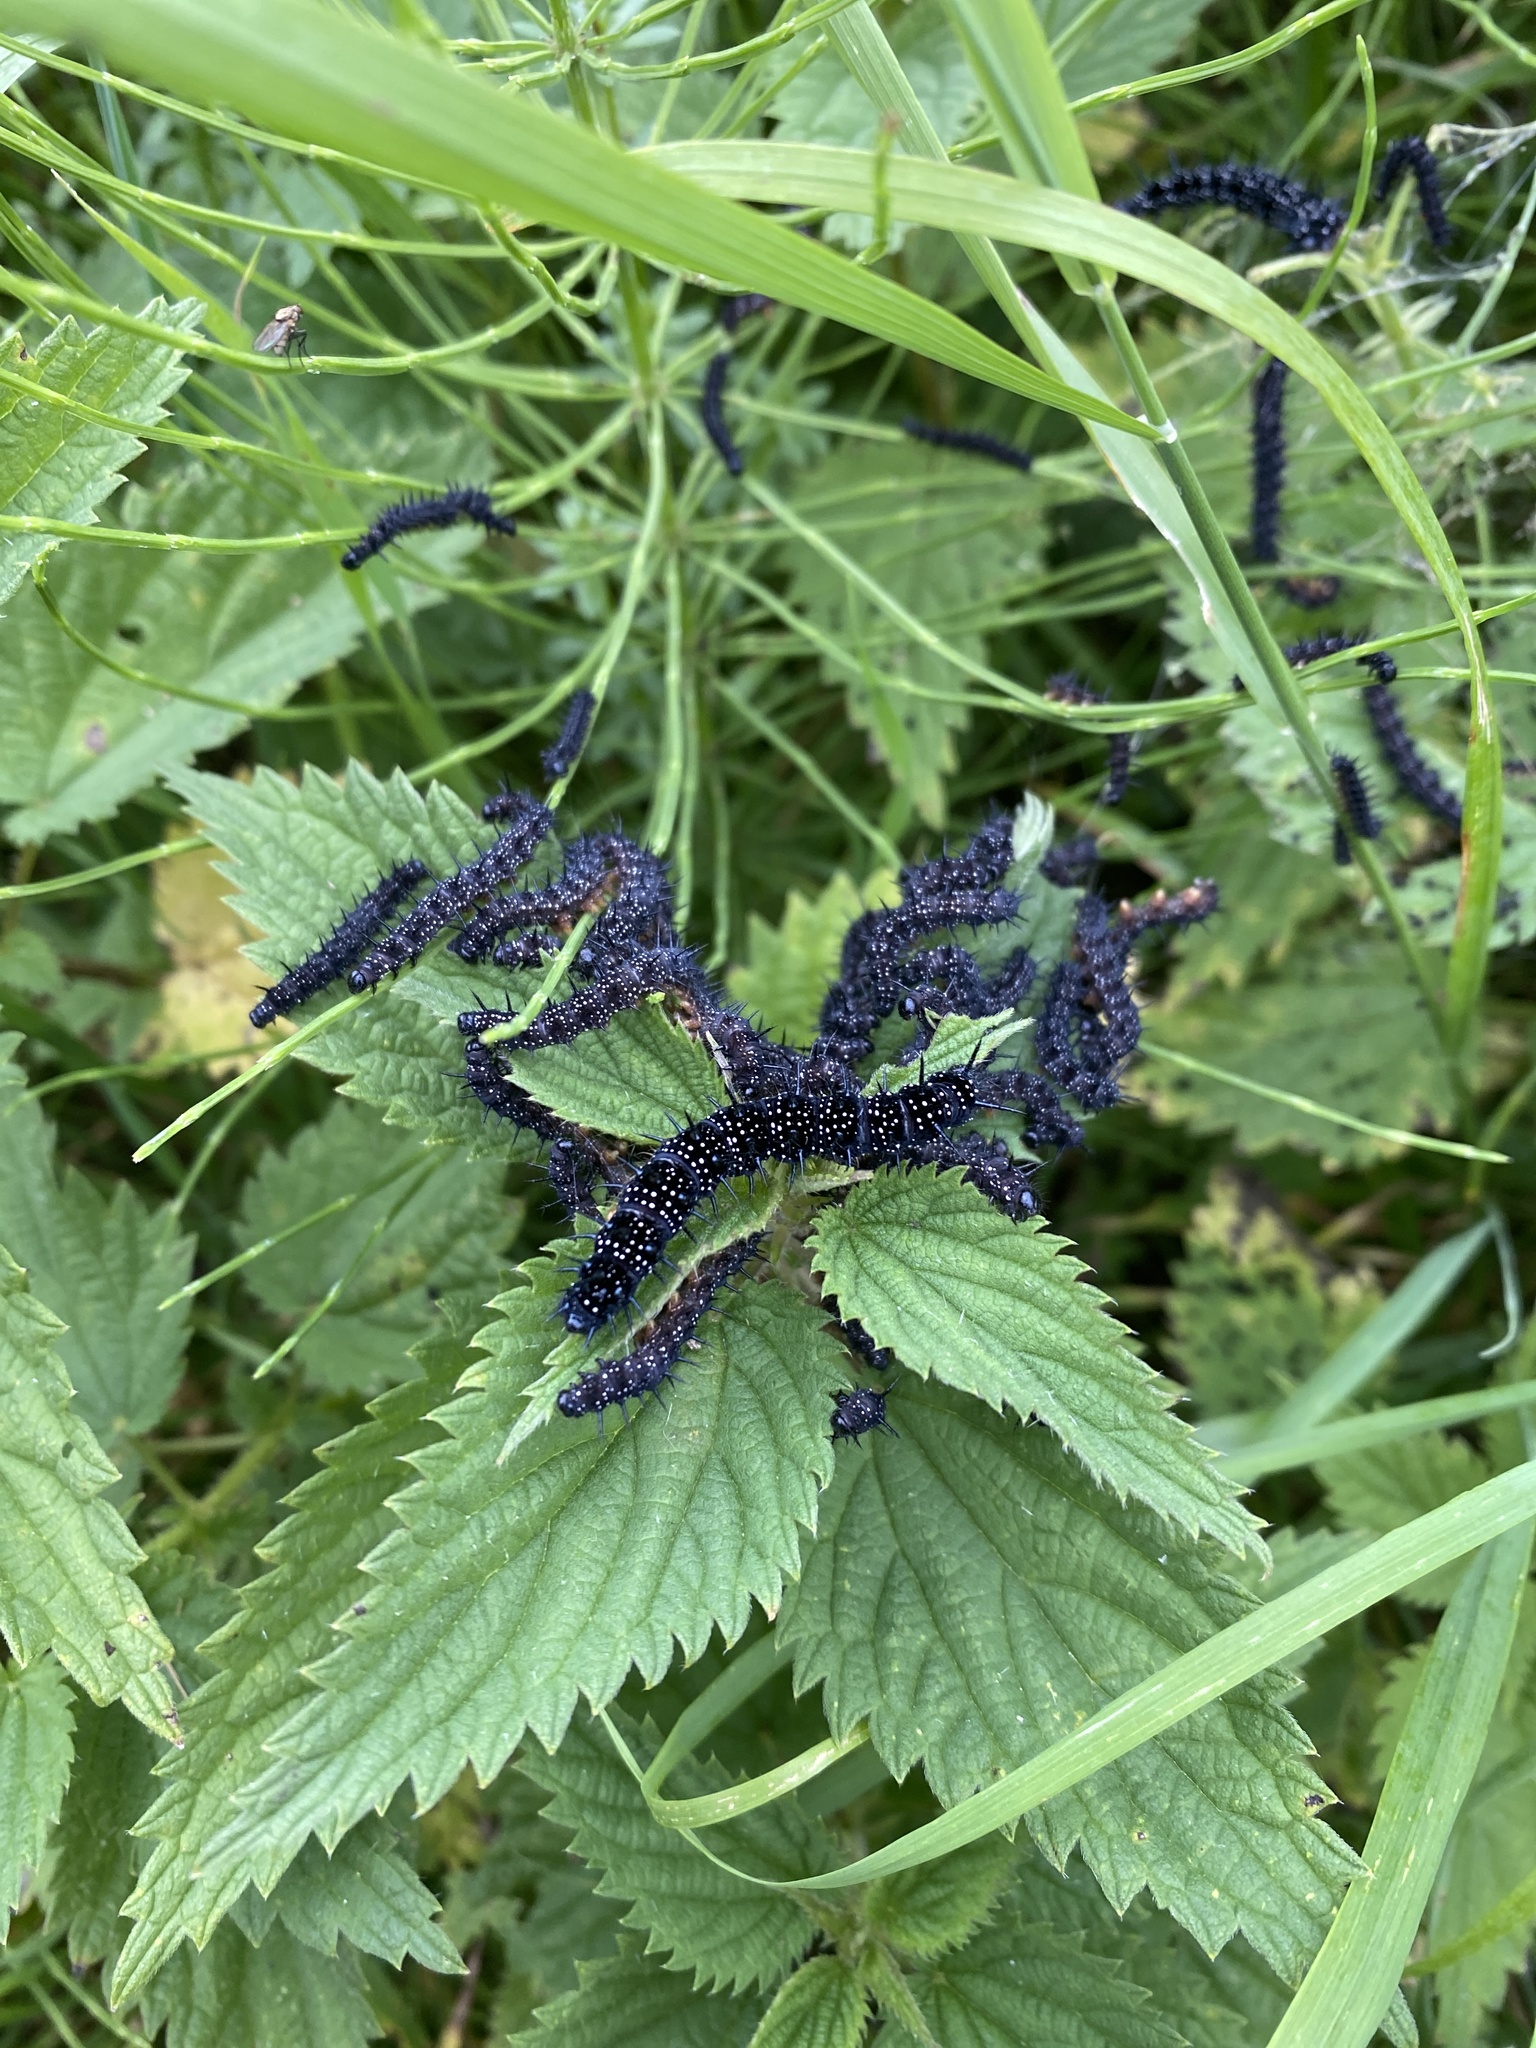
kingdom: Animalia
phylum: Arthropoda
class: Insecta
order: Lepidoptera
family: Nymphalidae
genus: Aglais
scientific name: Aglais io
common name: Peacock
